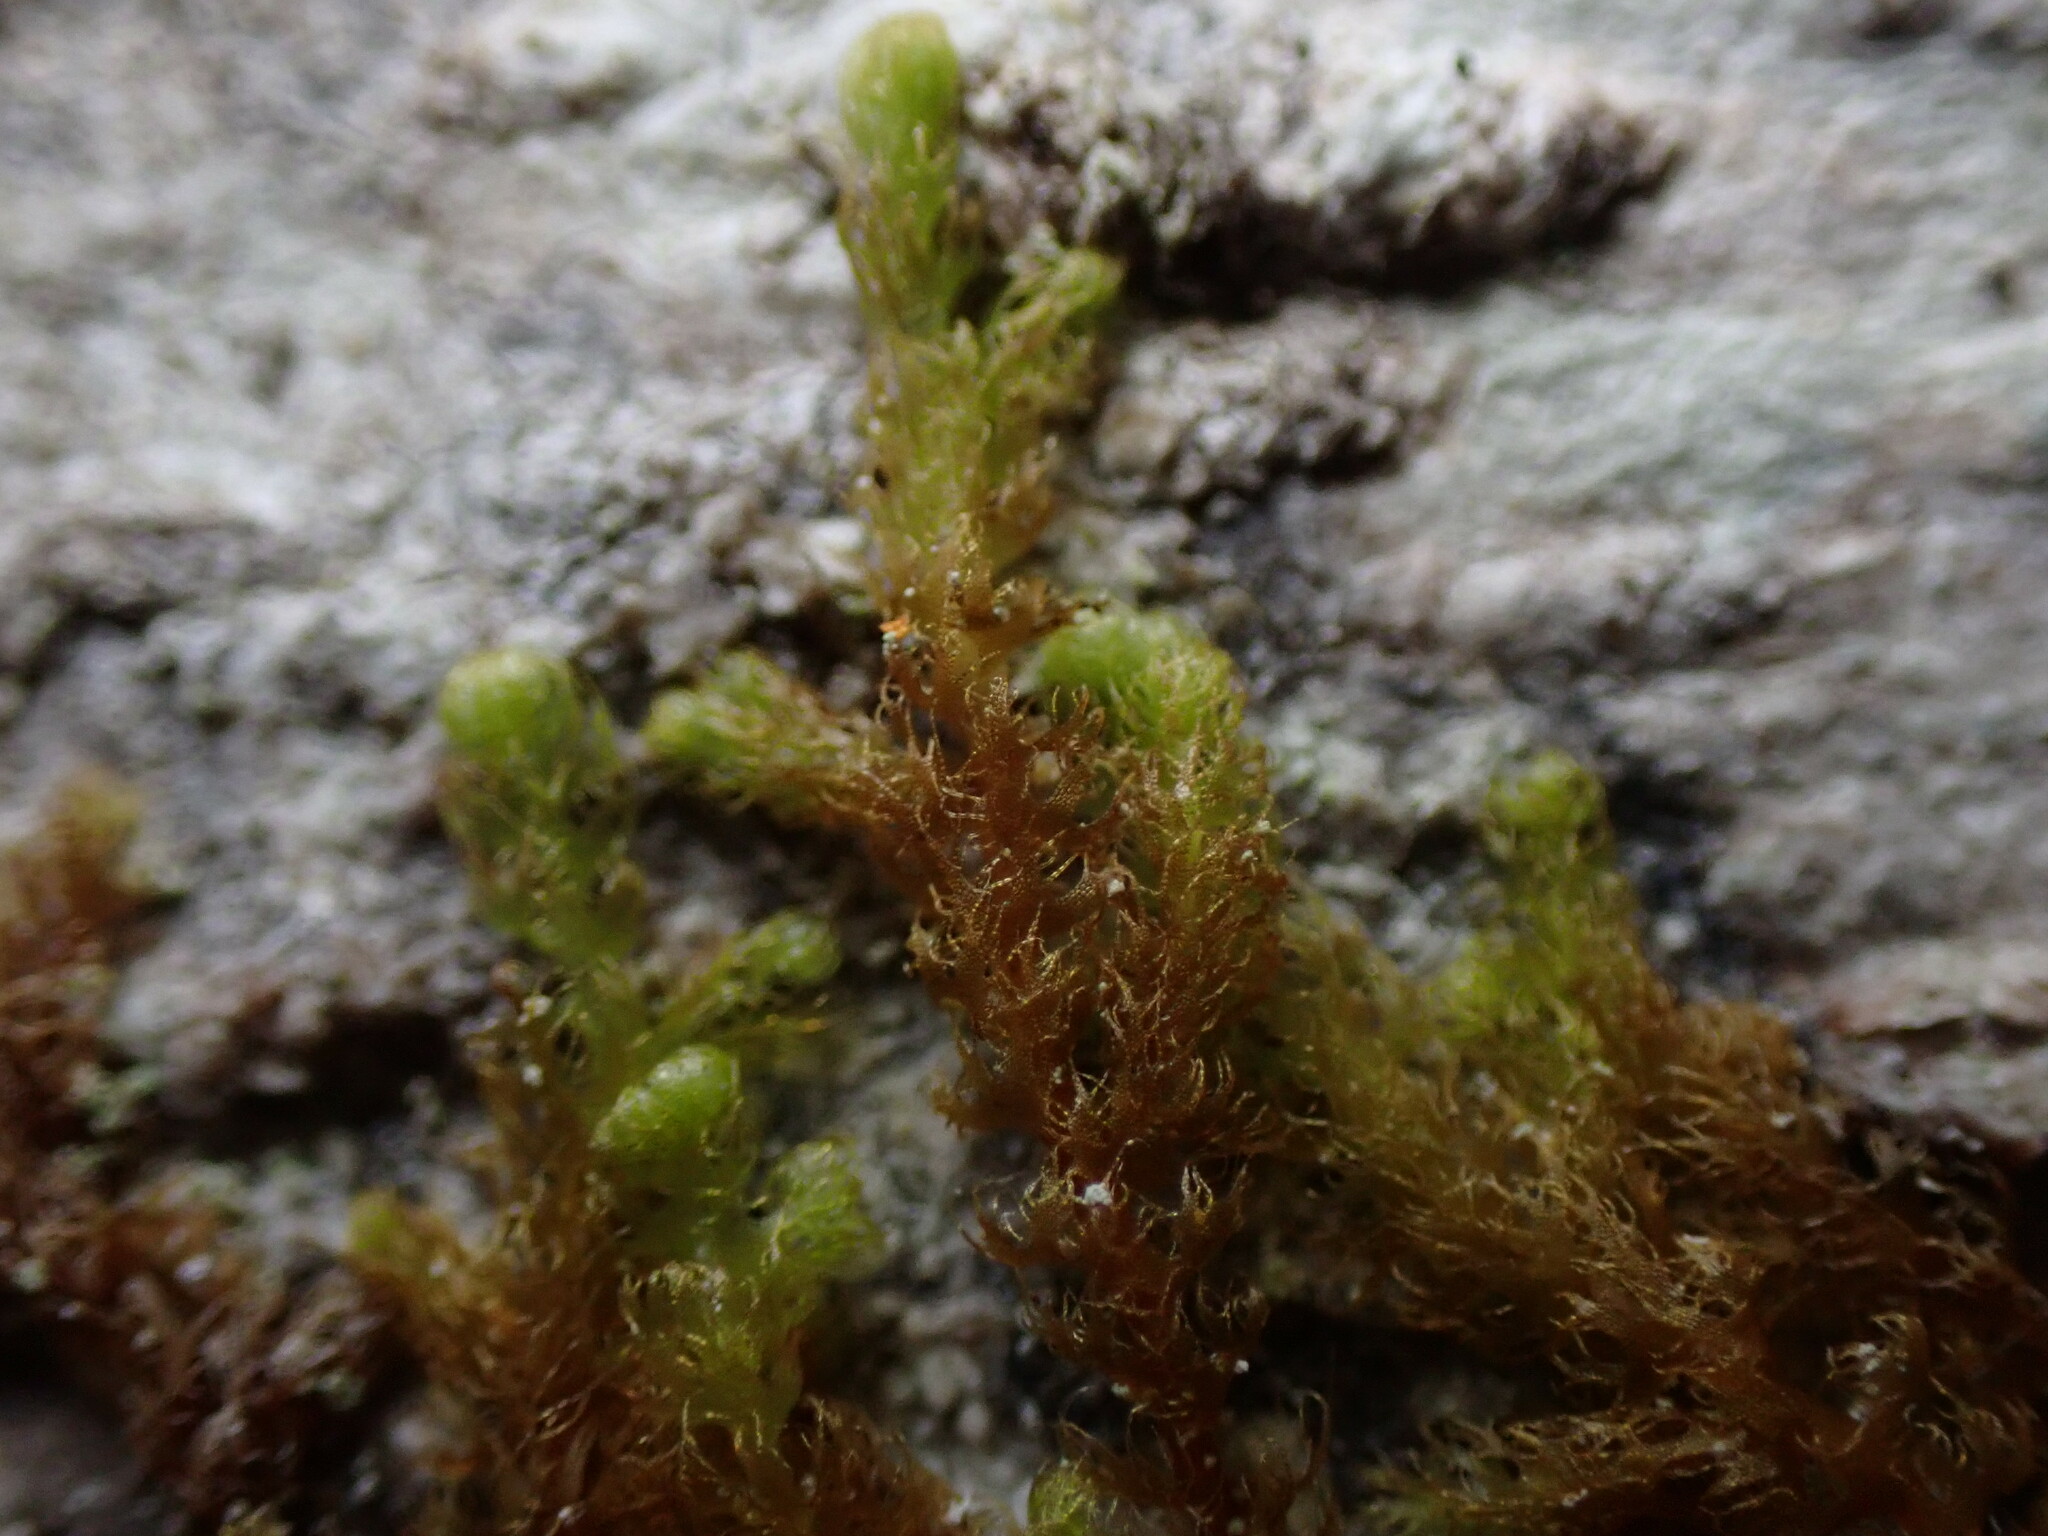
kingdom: Plantae
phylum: Marchantiophyta
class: Jungermanniopsida
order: Ptilidiales
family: Ptilidiaceae
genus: Ptilidium
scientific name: Ptilidium pulcherrimum
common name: Tree fringewort
